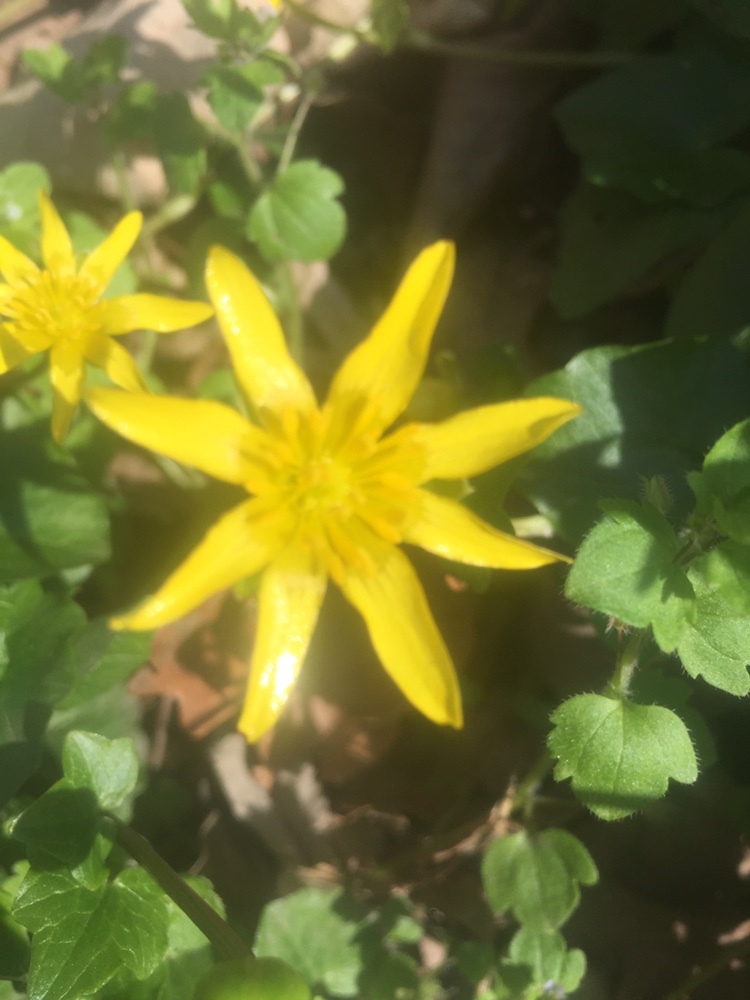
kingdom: Plantae
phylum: Tracheophyta
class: Magnoliopsida
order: Ranunculales
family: Ranunculaceae
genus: Ficaria
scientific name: Ficaria verna
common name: Lesser celandine
